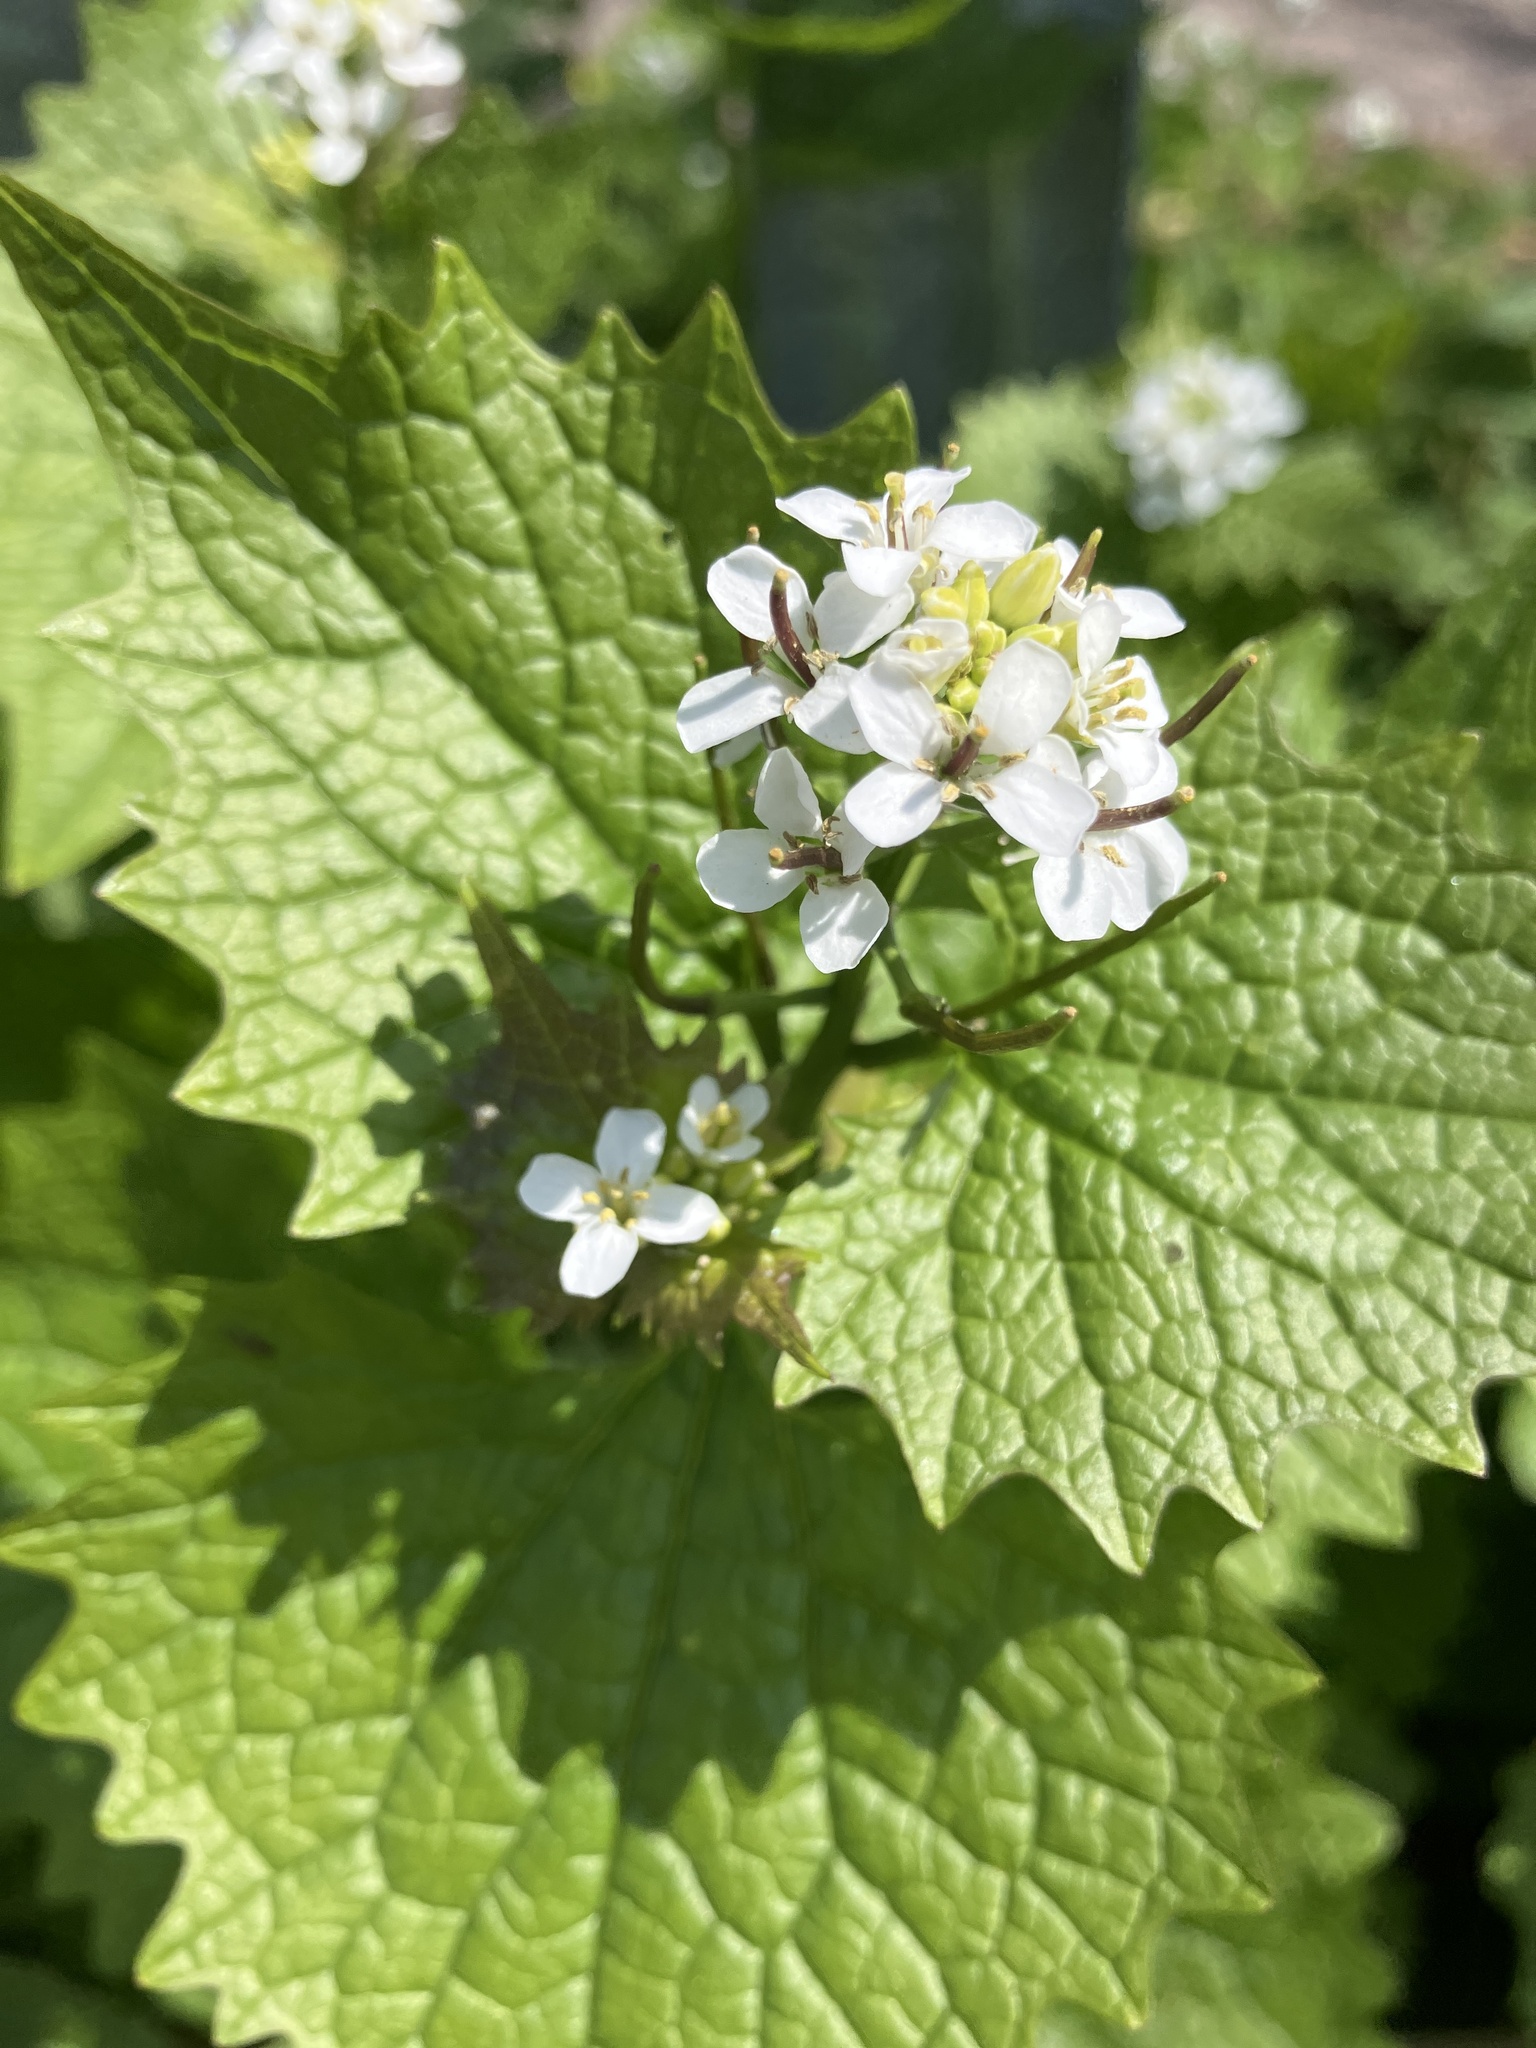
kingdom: Plantae
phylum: Tracheophyta
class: Magnoliopsida
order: Brassicales
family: Brassicaceae
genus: Alliaria
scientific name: Alliaria petiolata
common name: Garlic mustard
